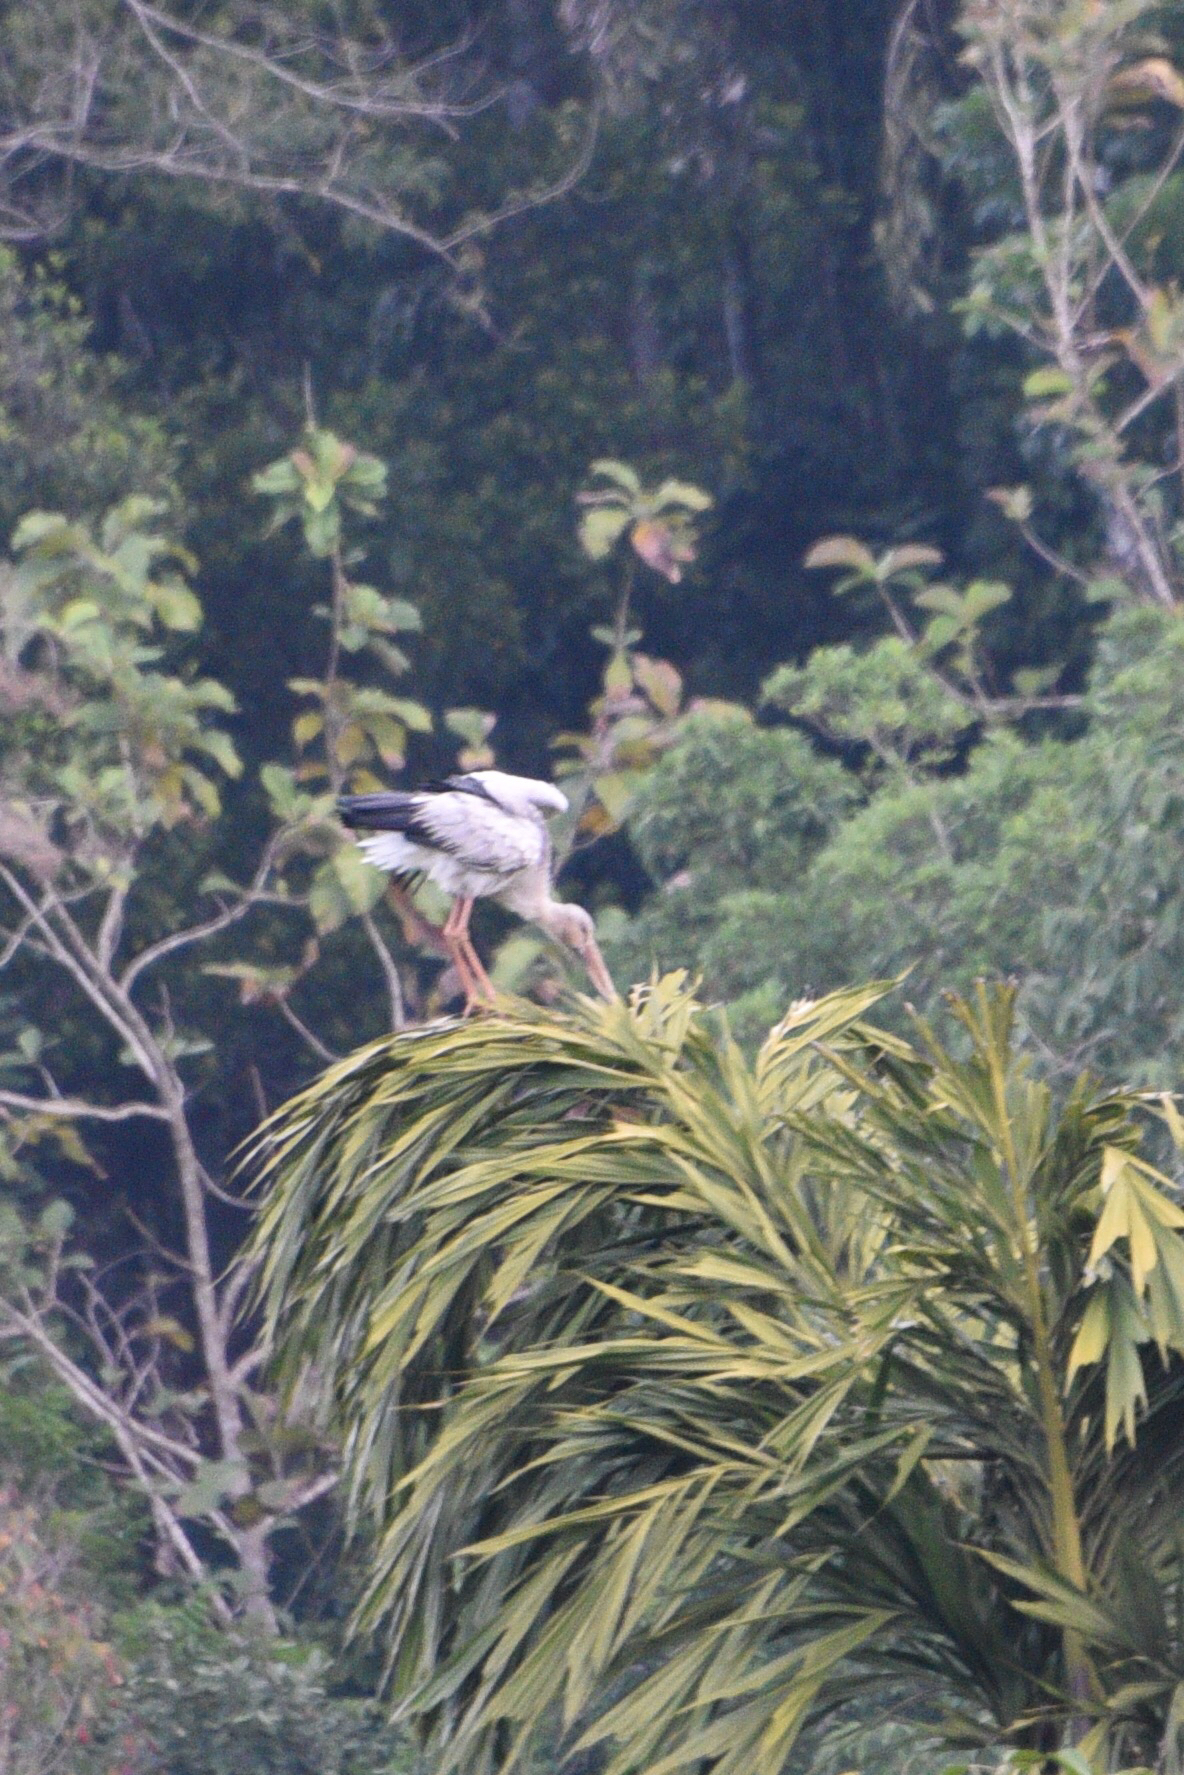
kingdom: Animalia
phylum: Chordata
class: Aves
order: Ciconiiformes
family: Ciconiidae
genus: Anastomus
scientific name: Anastomus oscitans
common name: Asian openbill
